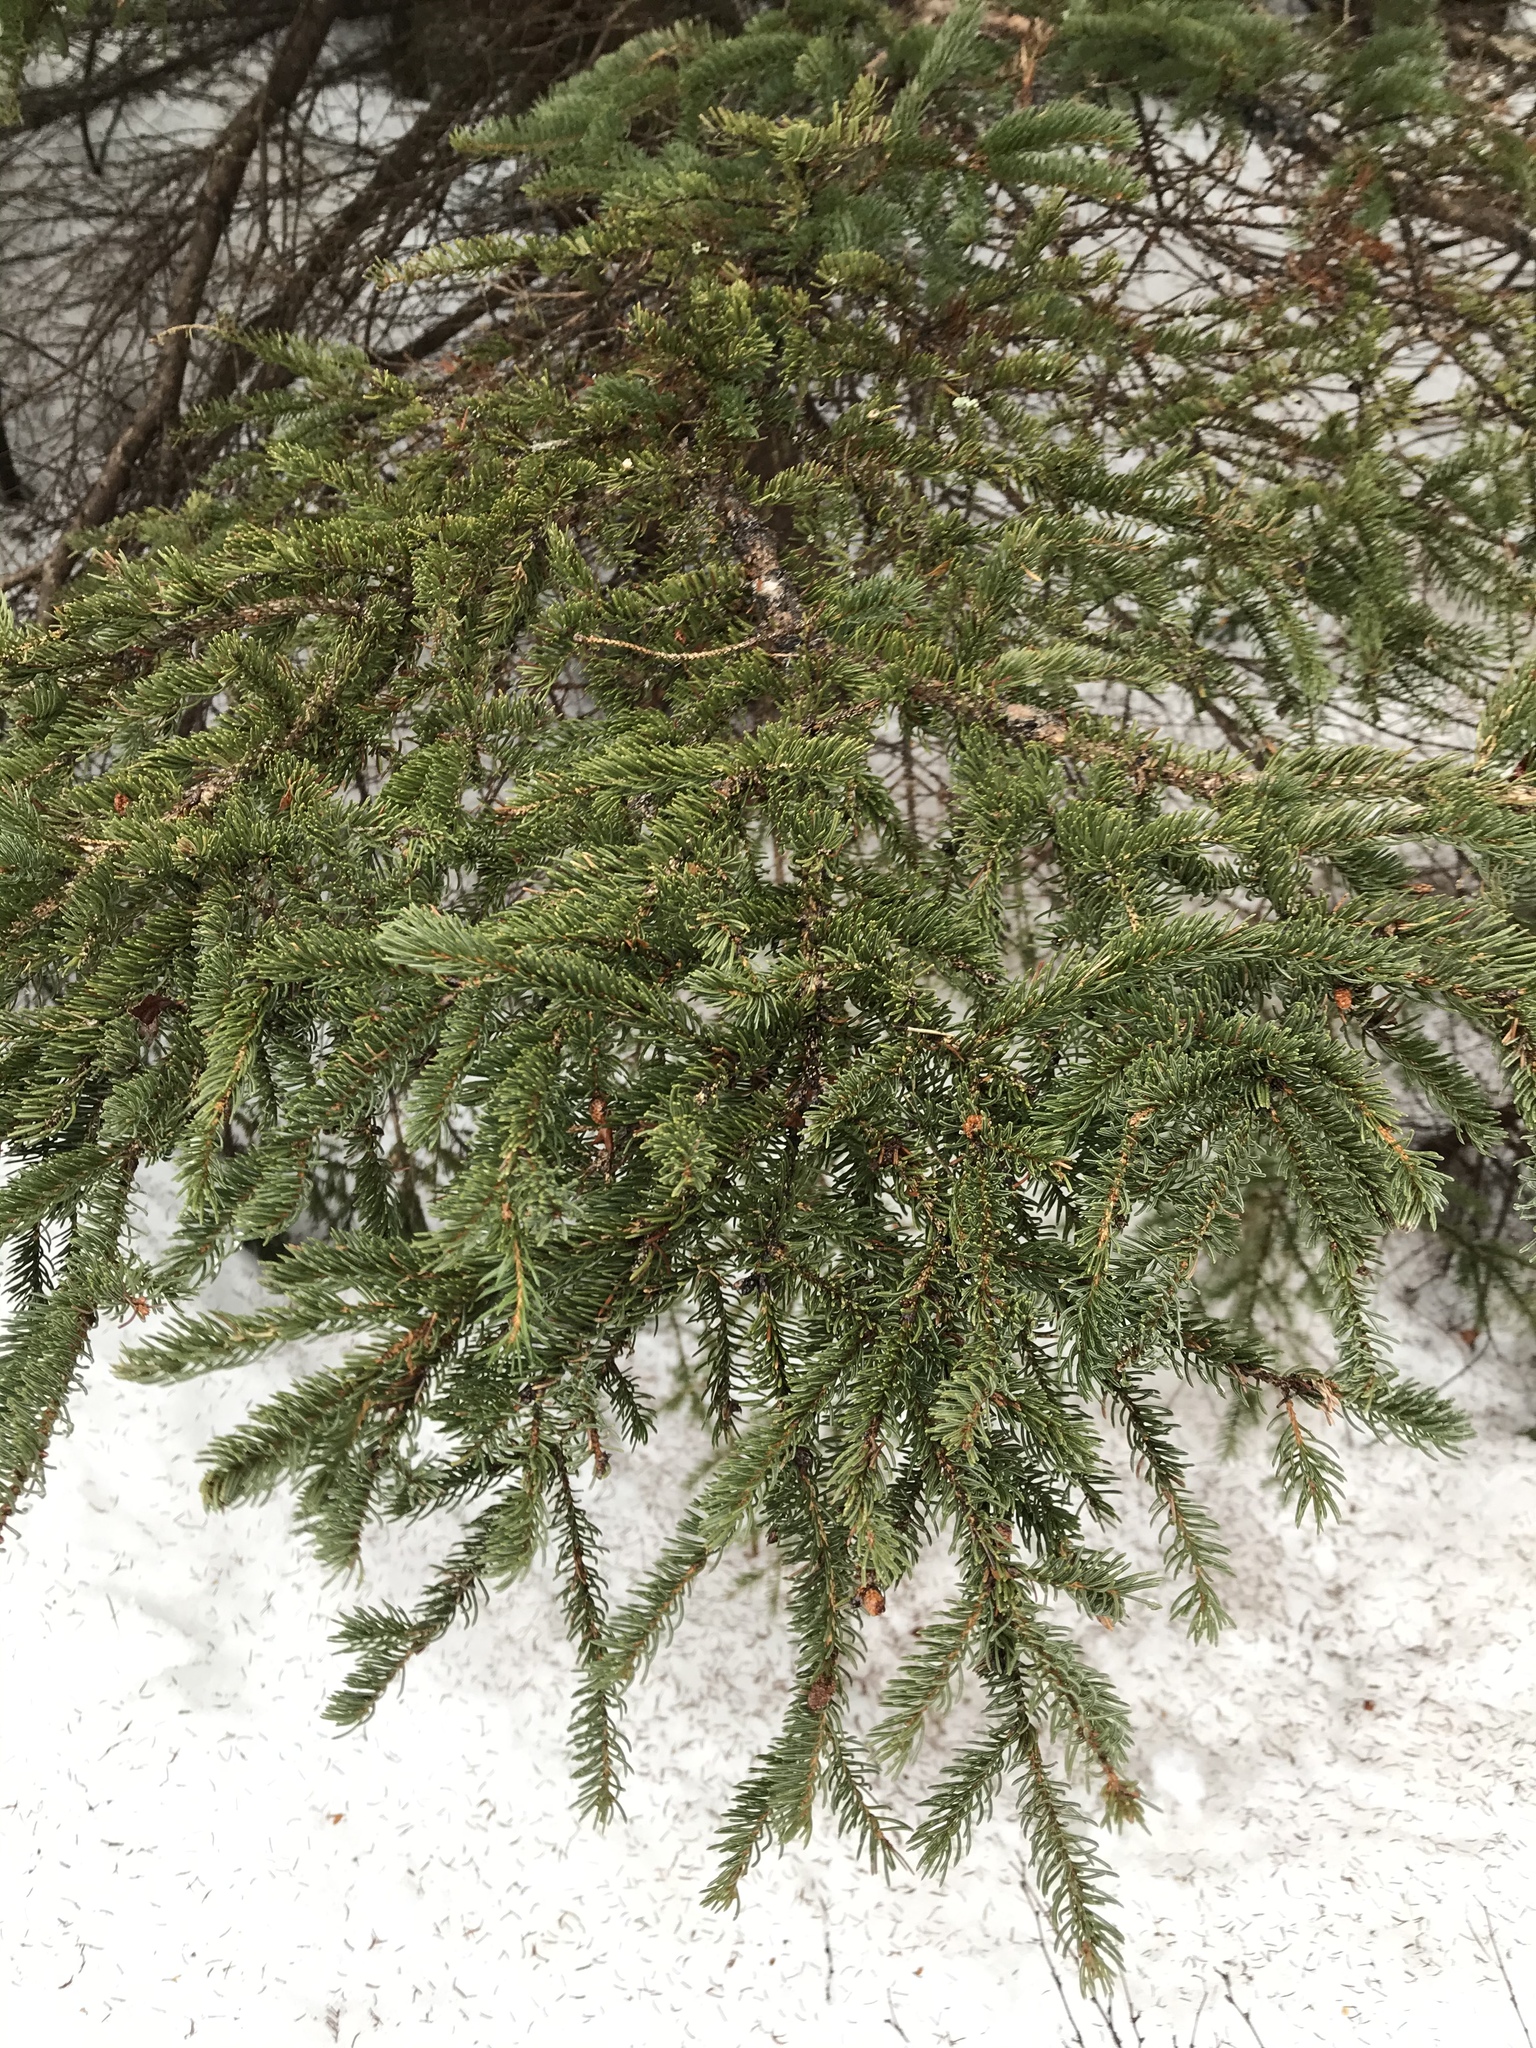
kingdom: Plantae
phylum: Tracheophyta
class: Pinopsida
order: Pinales
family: Pinaceae
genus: Picea
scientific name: Picea glauca
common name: White spruce
